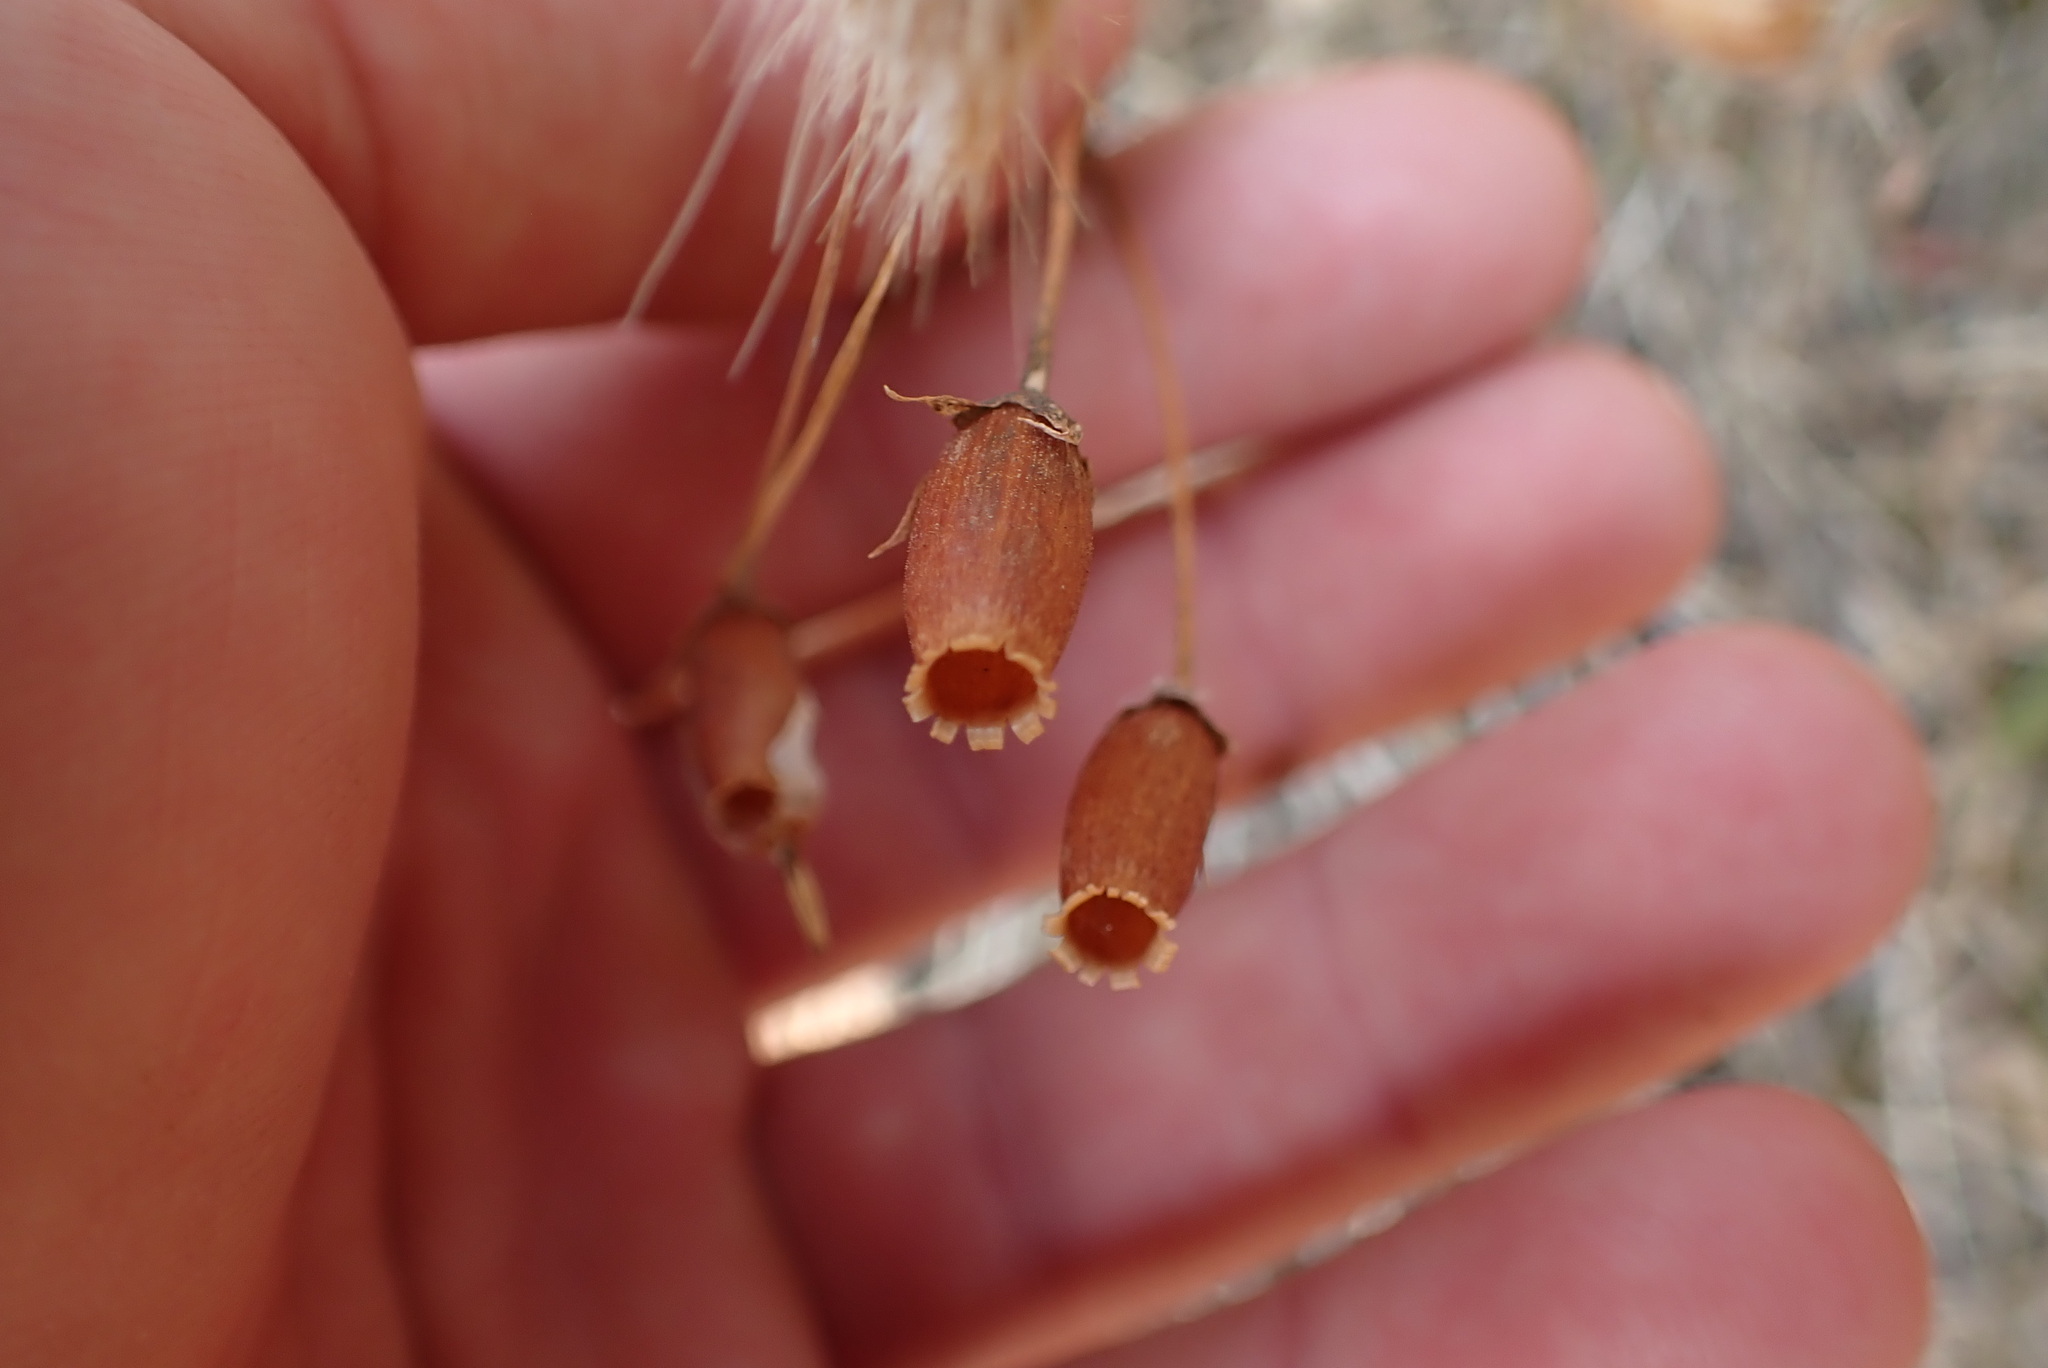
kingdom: Plantae
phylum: Tracheophyta
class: Magnoliopsida
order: Ericales
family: Primulaceae
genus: Dodecatheon
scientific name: Dodecatheon hendersonii
